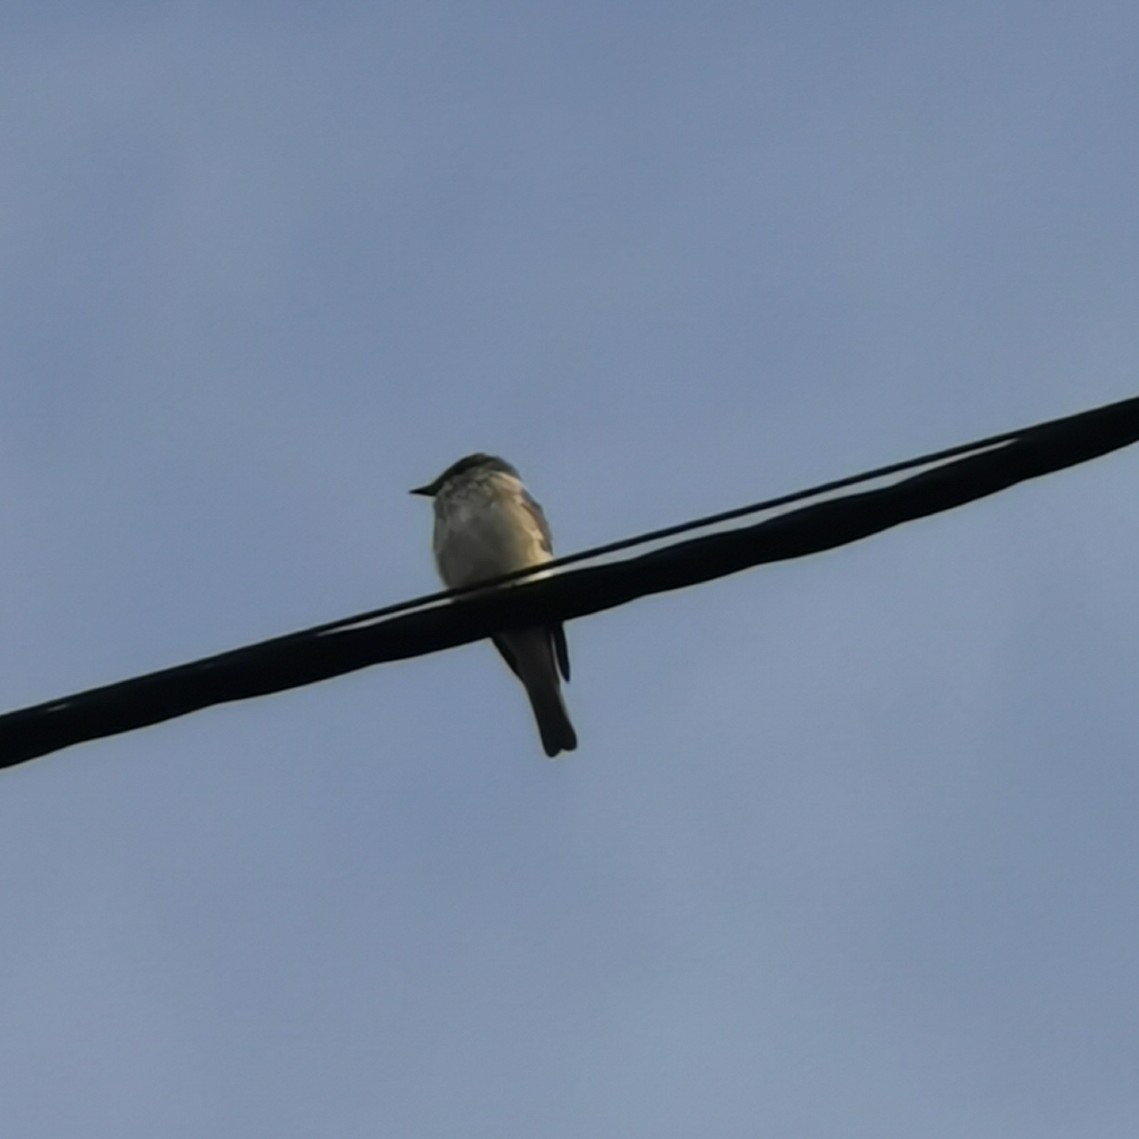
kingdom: Animalia
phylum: Chordata
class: Aves
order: Passeriformes
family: Muscicapidae
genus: Muscicapa
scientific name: Muscicapa striata
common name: Spotted flycatcher
